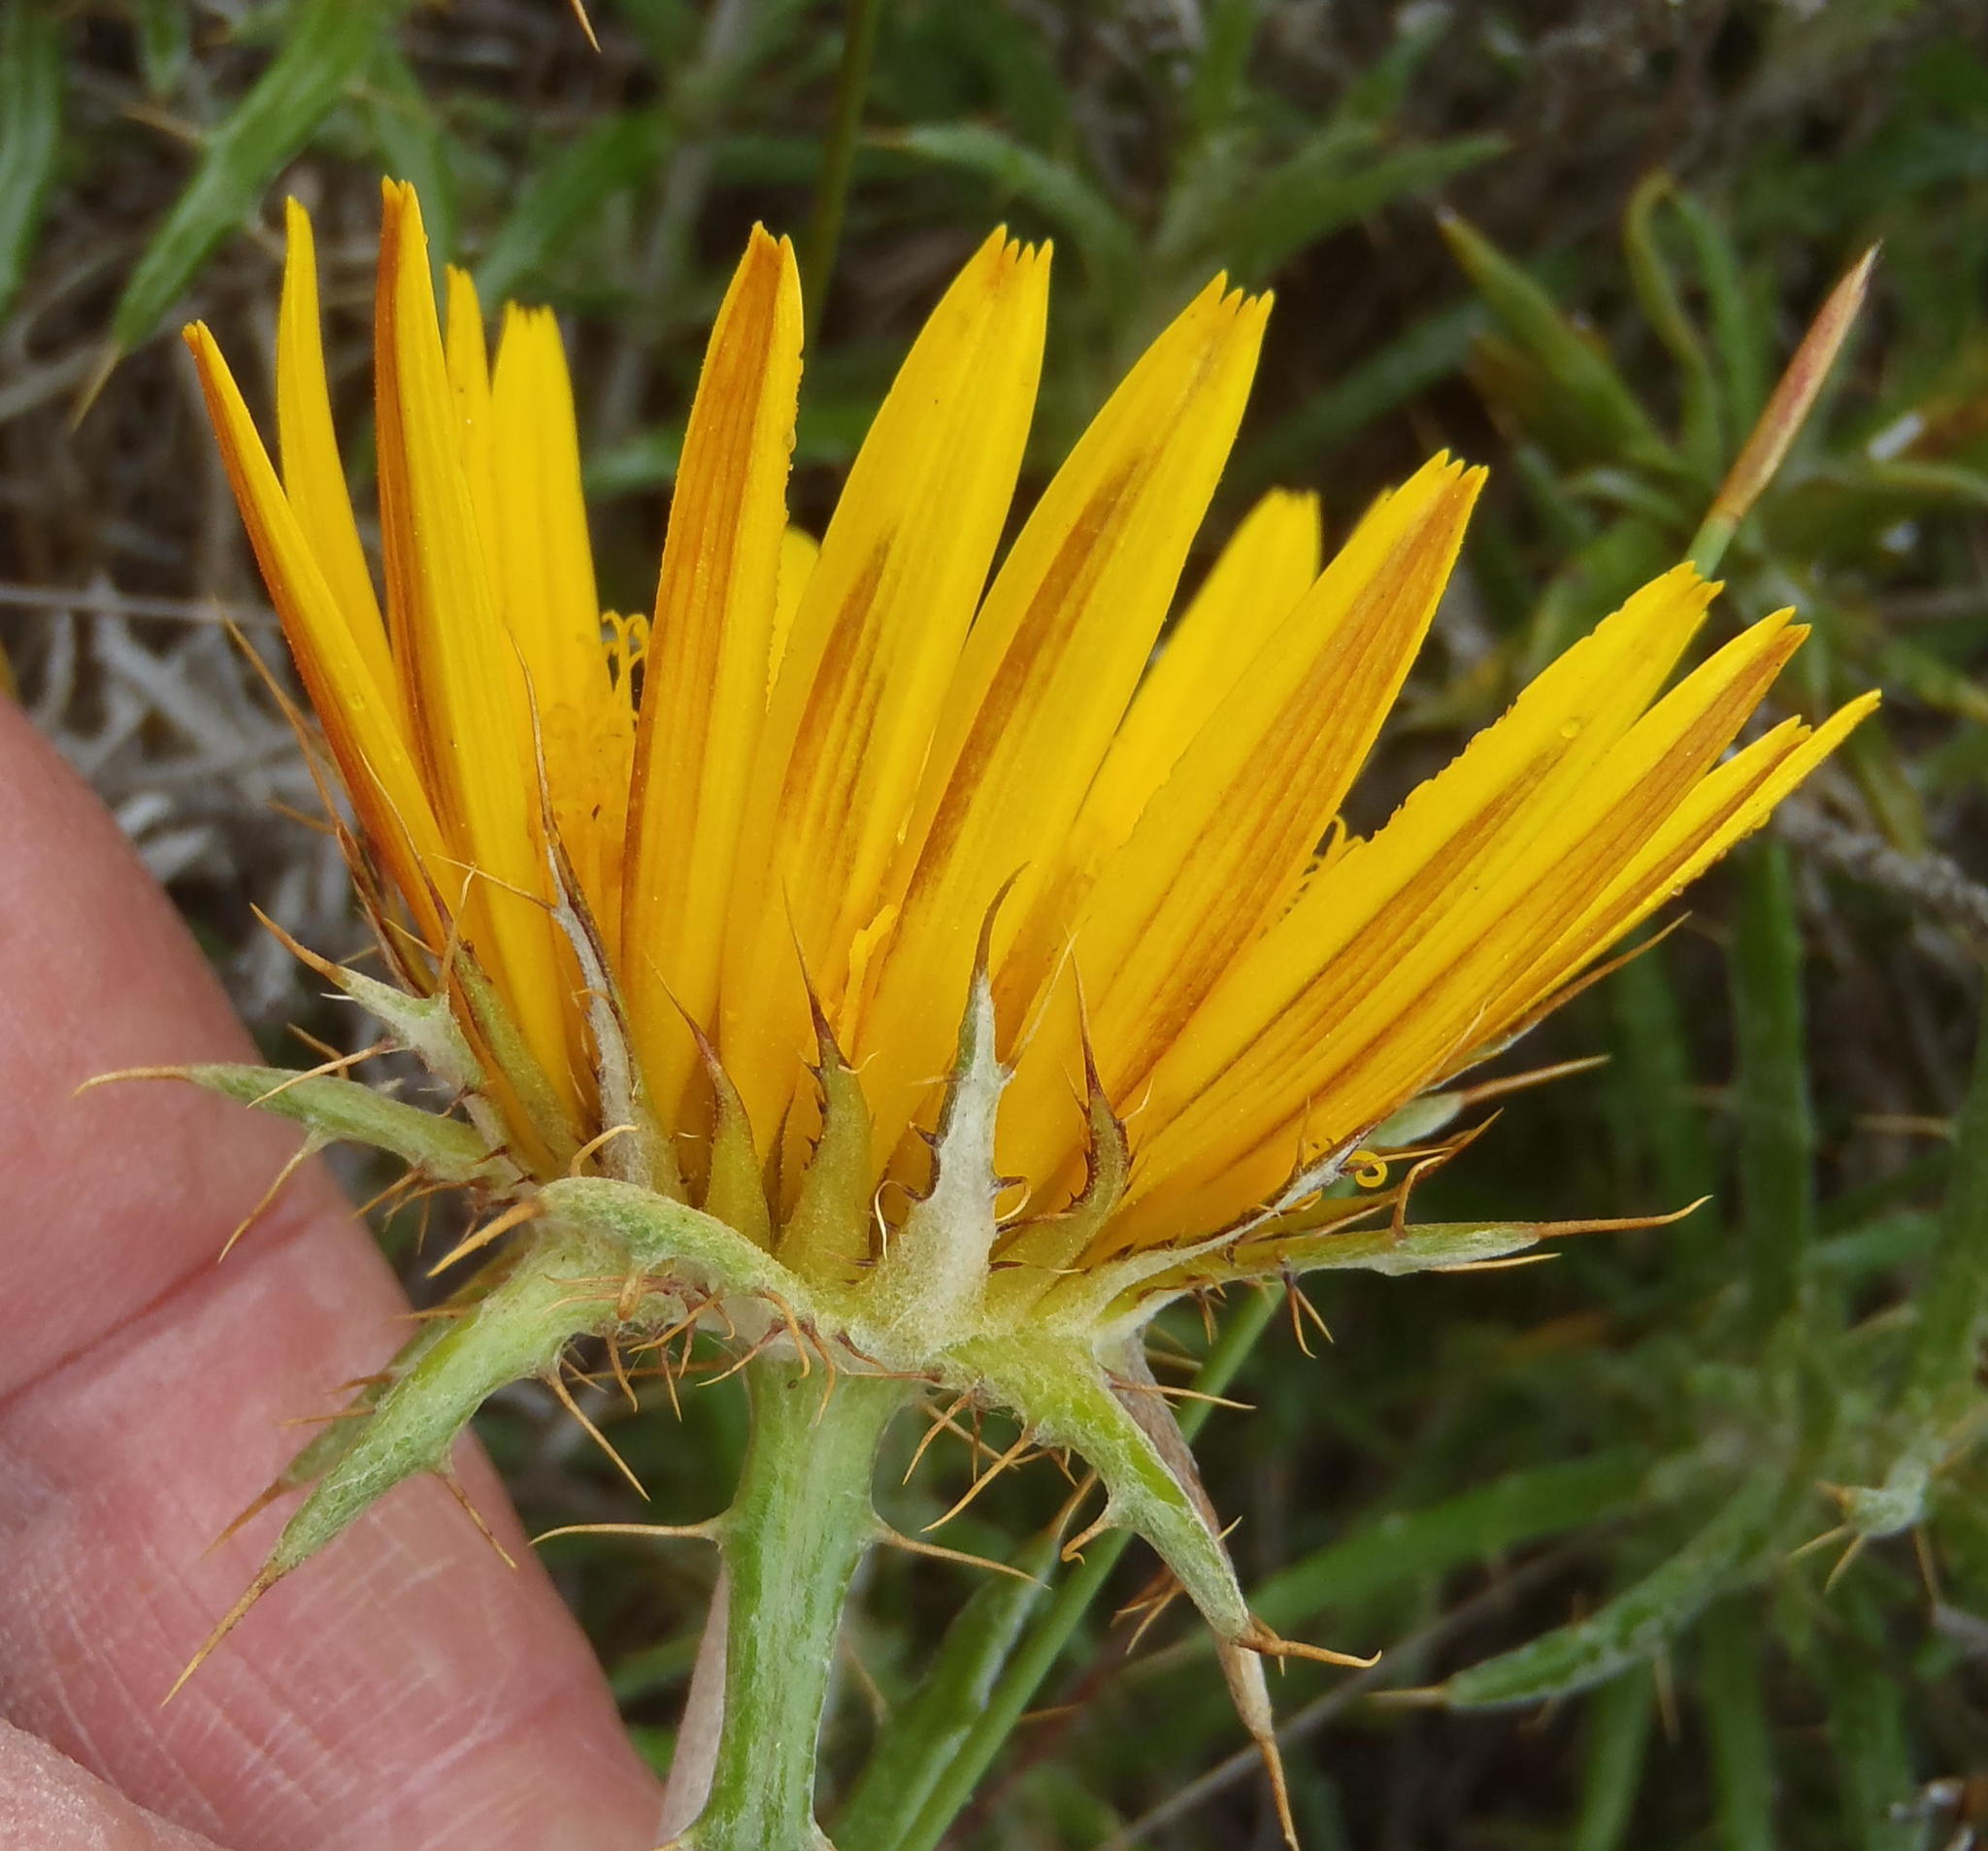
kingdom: Plantae
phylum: Tracheophyta
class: Magnoliopsida
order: Asterales
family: Asteraceae
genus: Berkheya
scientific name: Berkheya angustifolia
